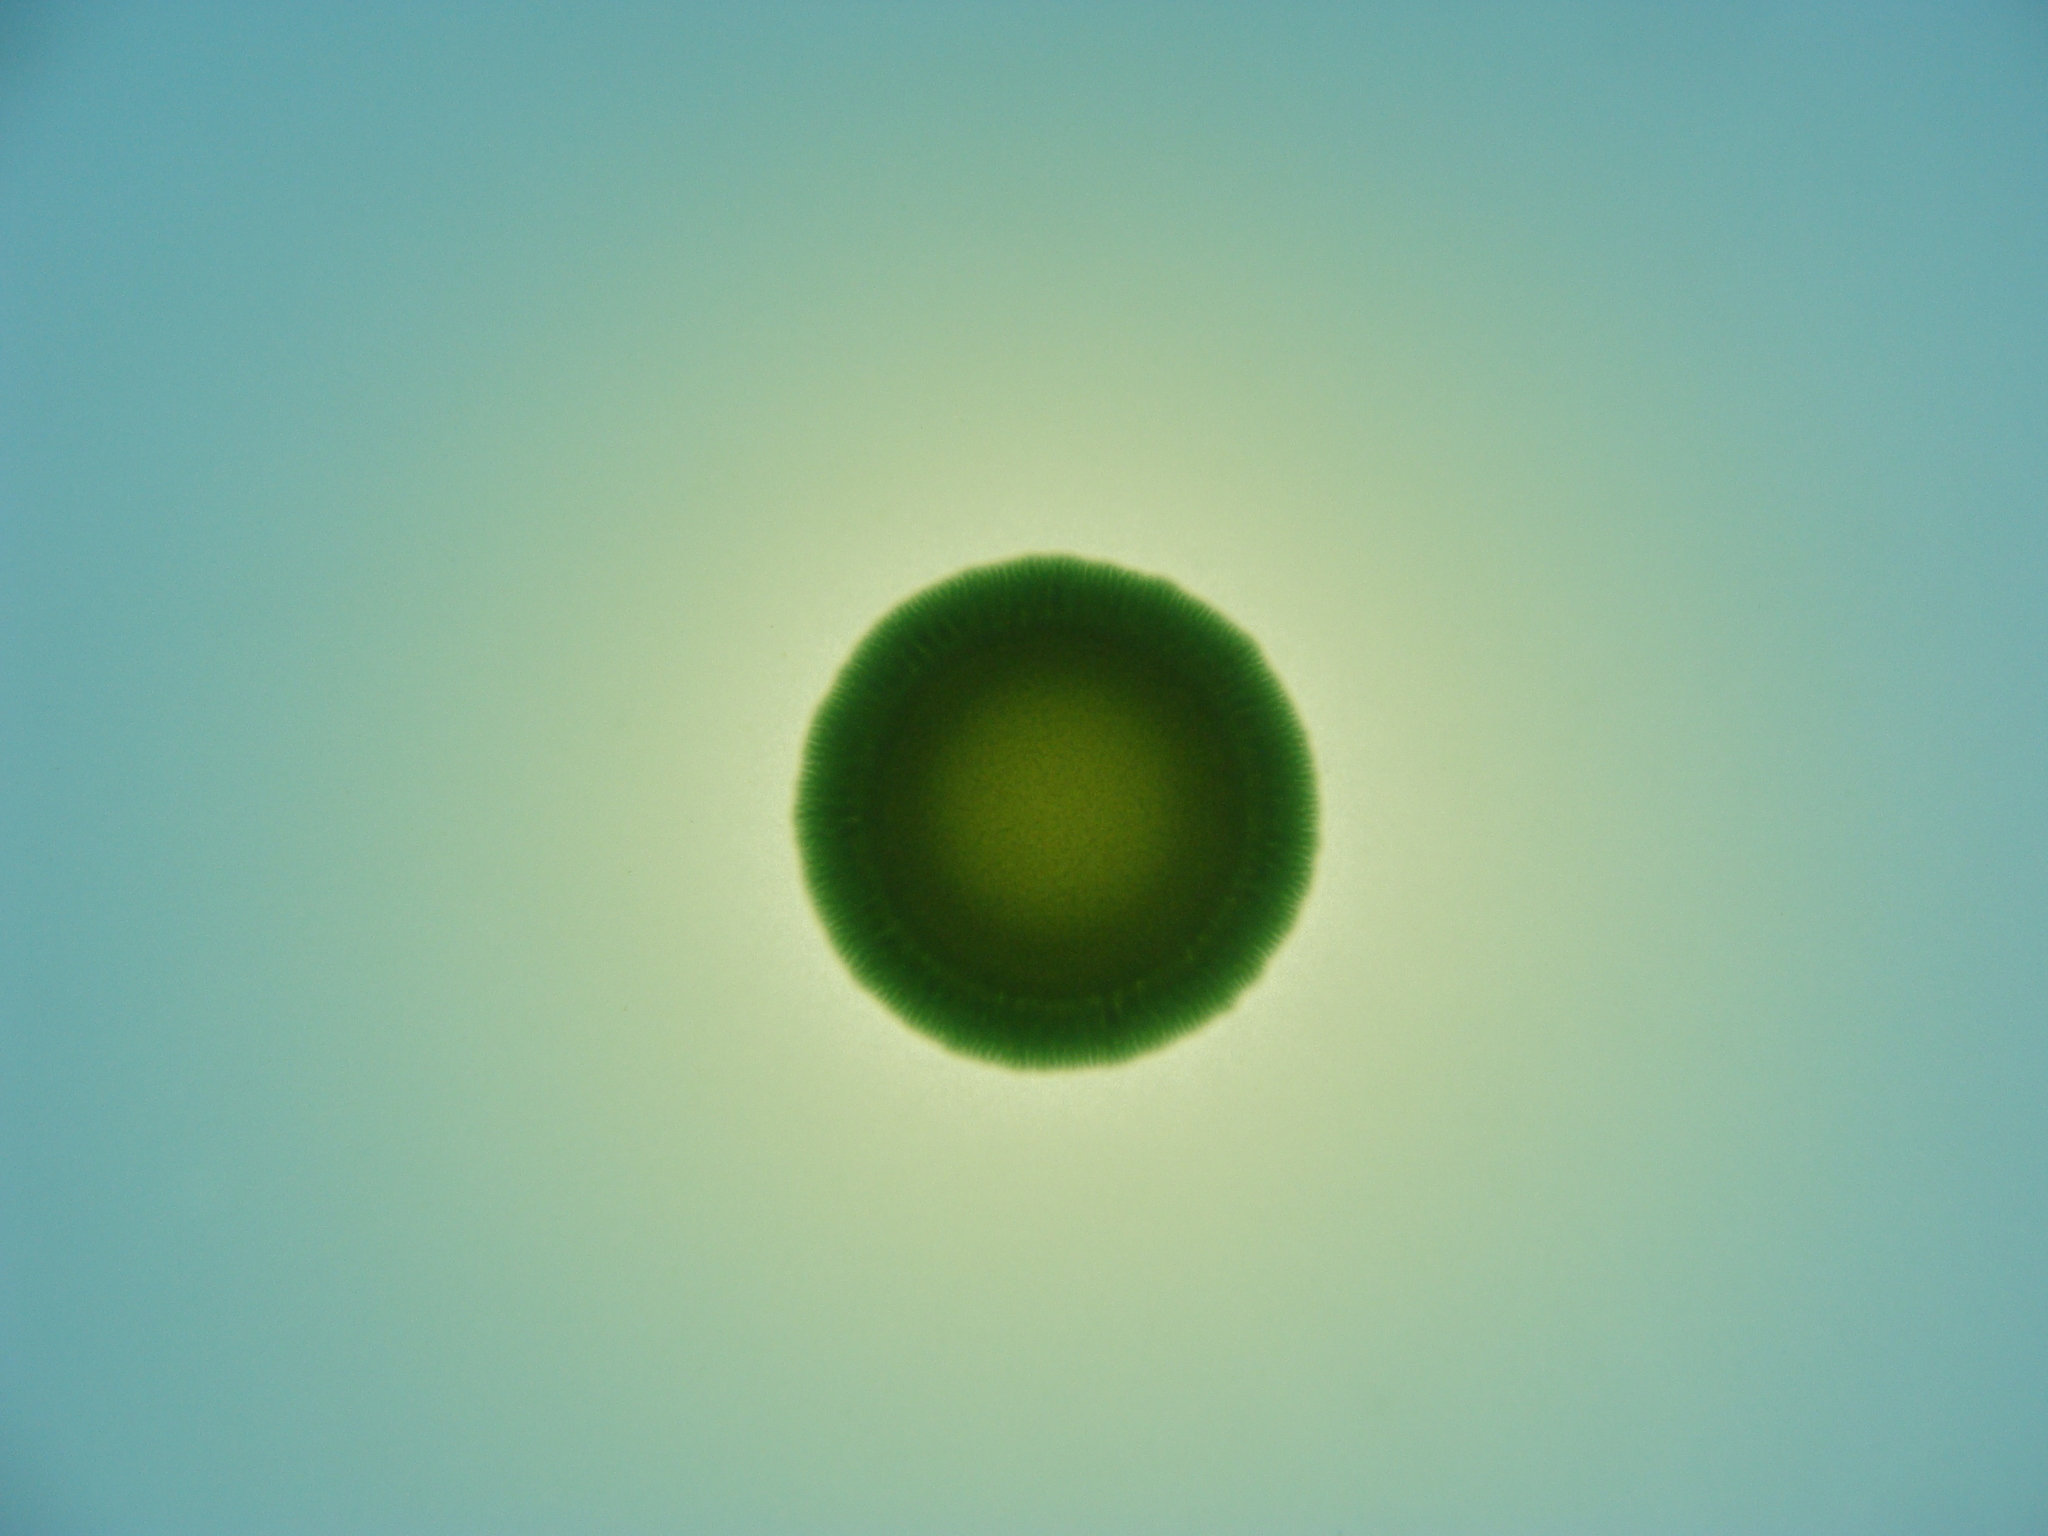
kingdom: Bacteria
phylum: Proteobacteria
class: Gammaproteobacteria
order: Pseudomonadales
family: Pseudomonadaceae
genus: Pseudomonas
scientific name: Pseudomonas fluorescens
